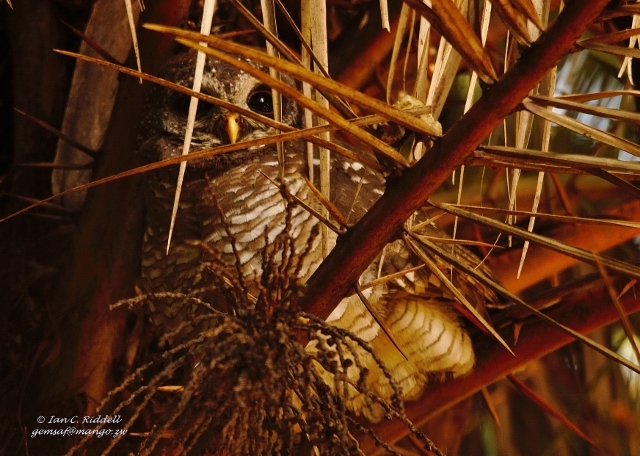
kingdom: Animalia
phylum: Chordata
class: Aves
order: Strigiformes
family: Strigidae
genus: Strix
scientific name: Strix woodfordii
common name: African wood owl
